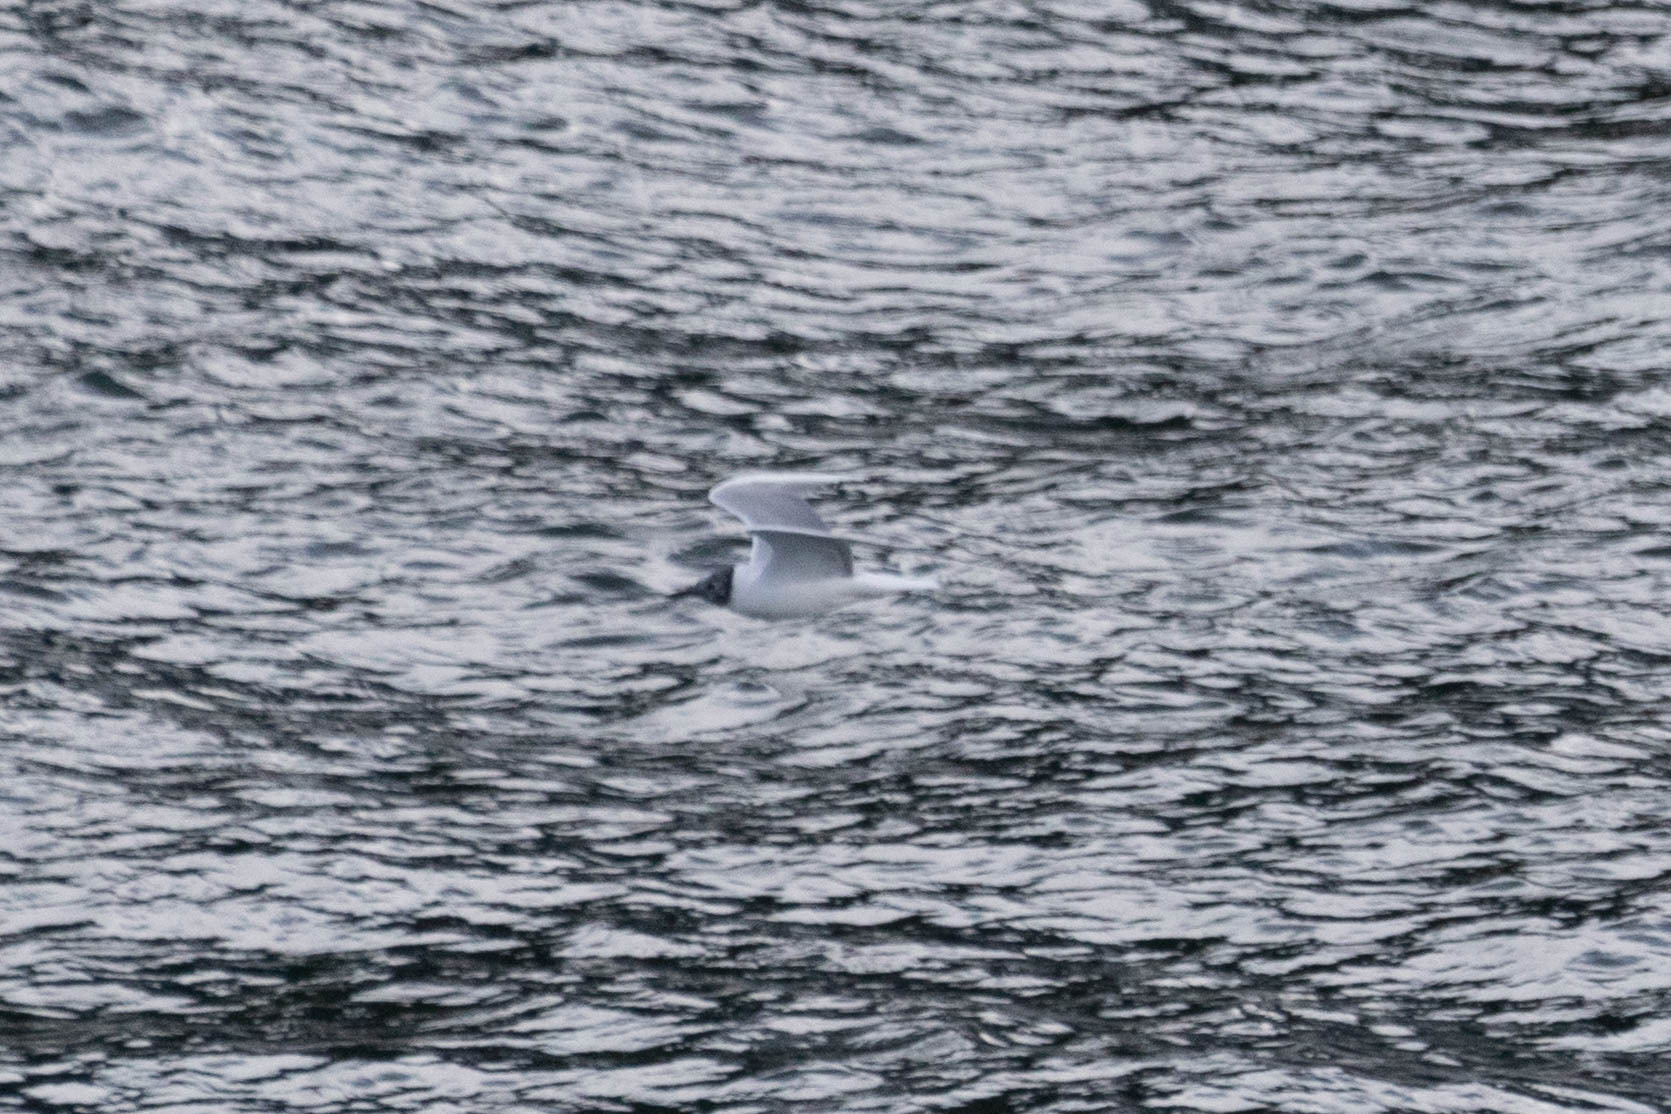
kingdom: Animalia
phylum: Chordata
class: Aves
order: Charadriiformes
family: Laridae
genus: Chroicocephalus
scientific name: Chroicocephalus philadelphia
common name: Bonaparte's gull
